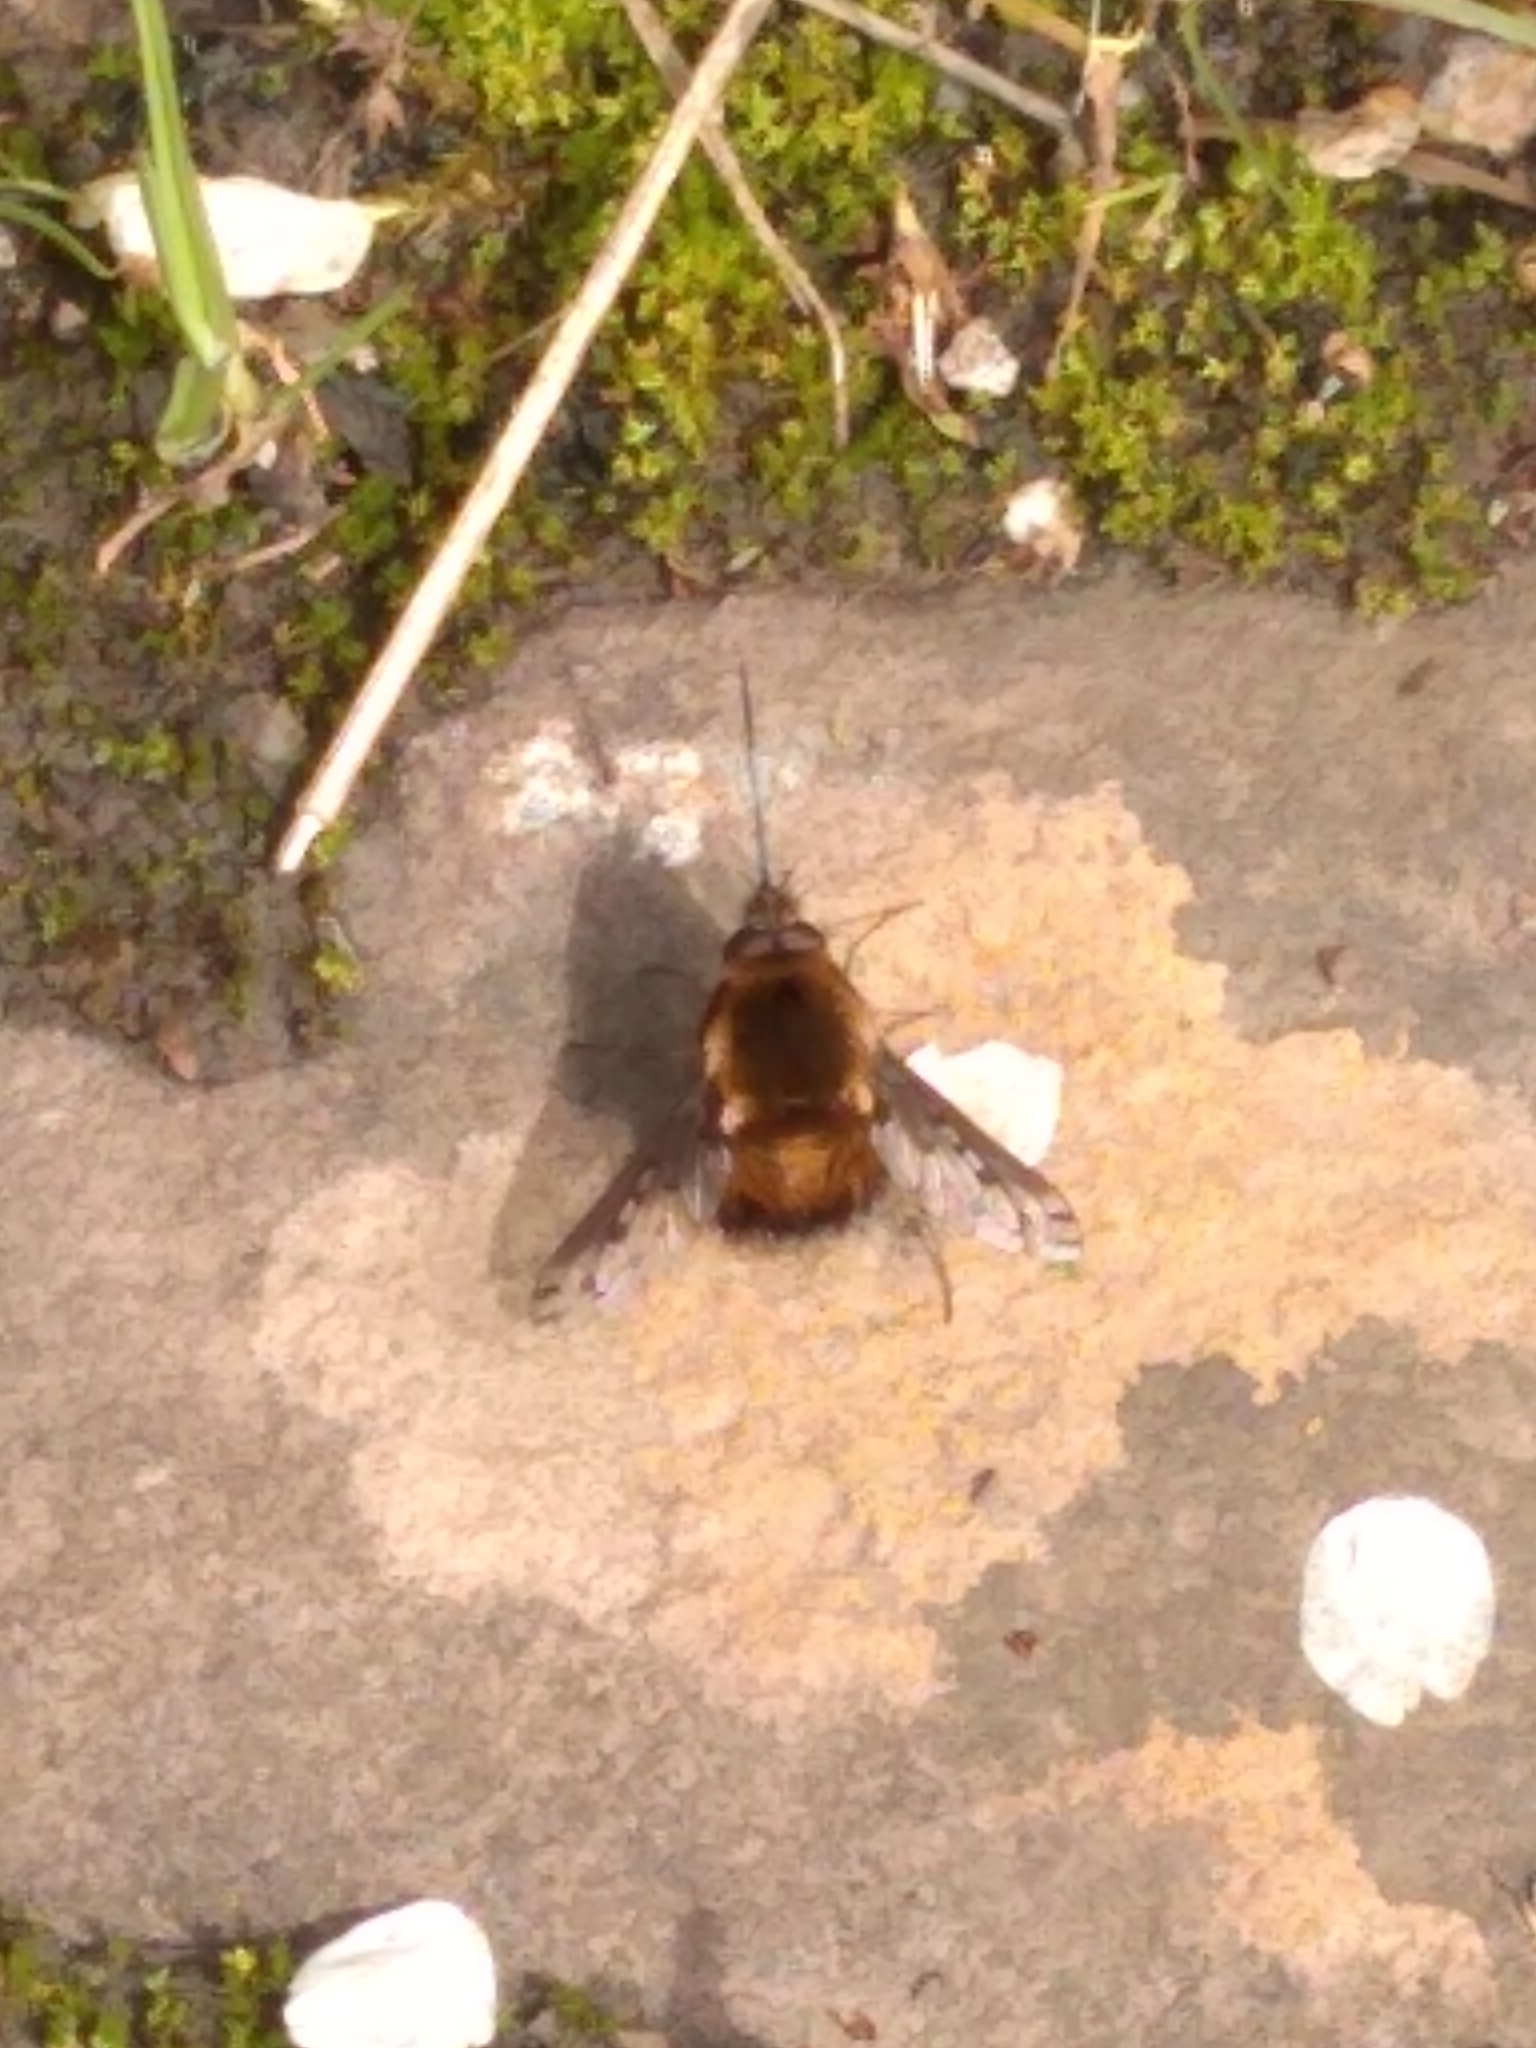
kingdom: Animalia
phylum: Arthropoda
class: Insecta
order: Diptera
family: Bombyliidae
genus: Bombylius
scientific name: Bombylius discolor
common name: Dotted bee-fly
